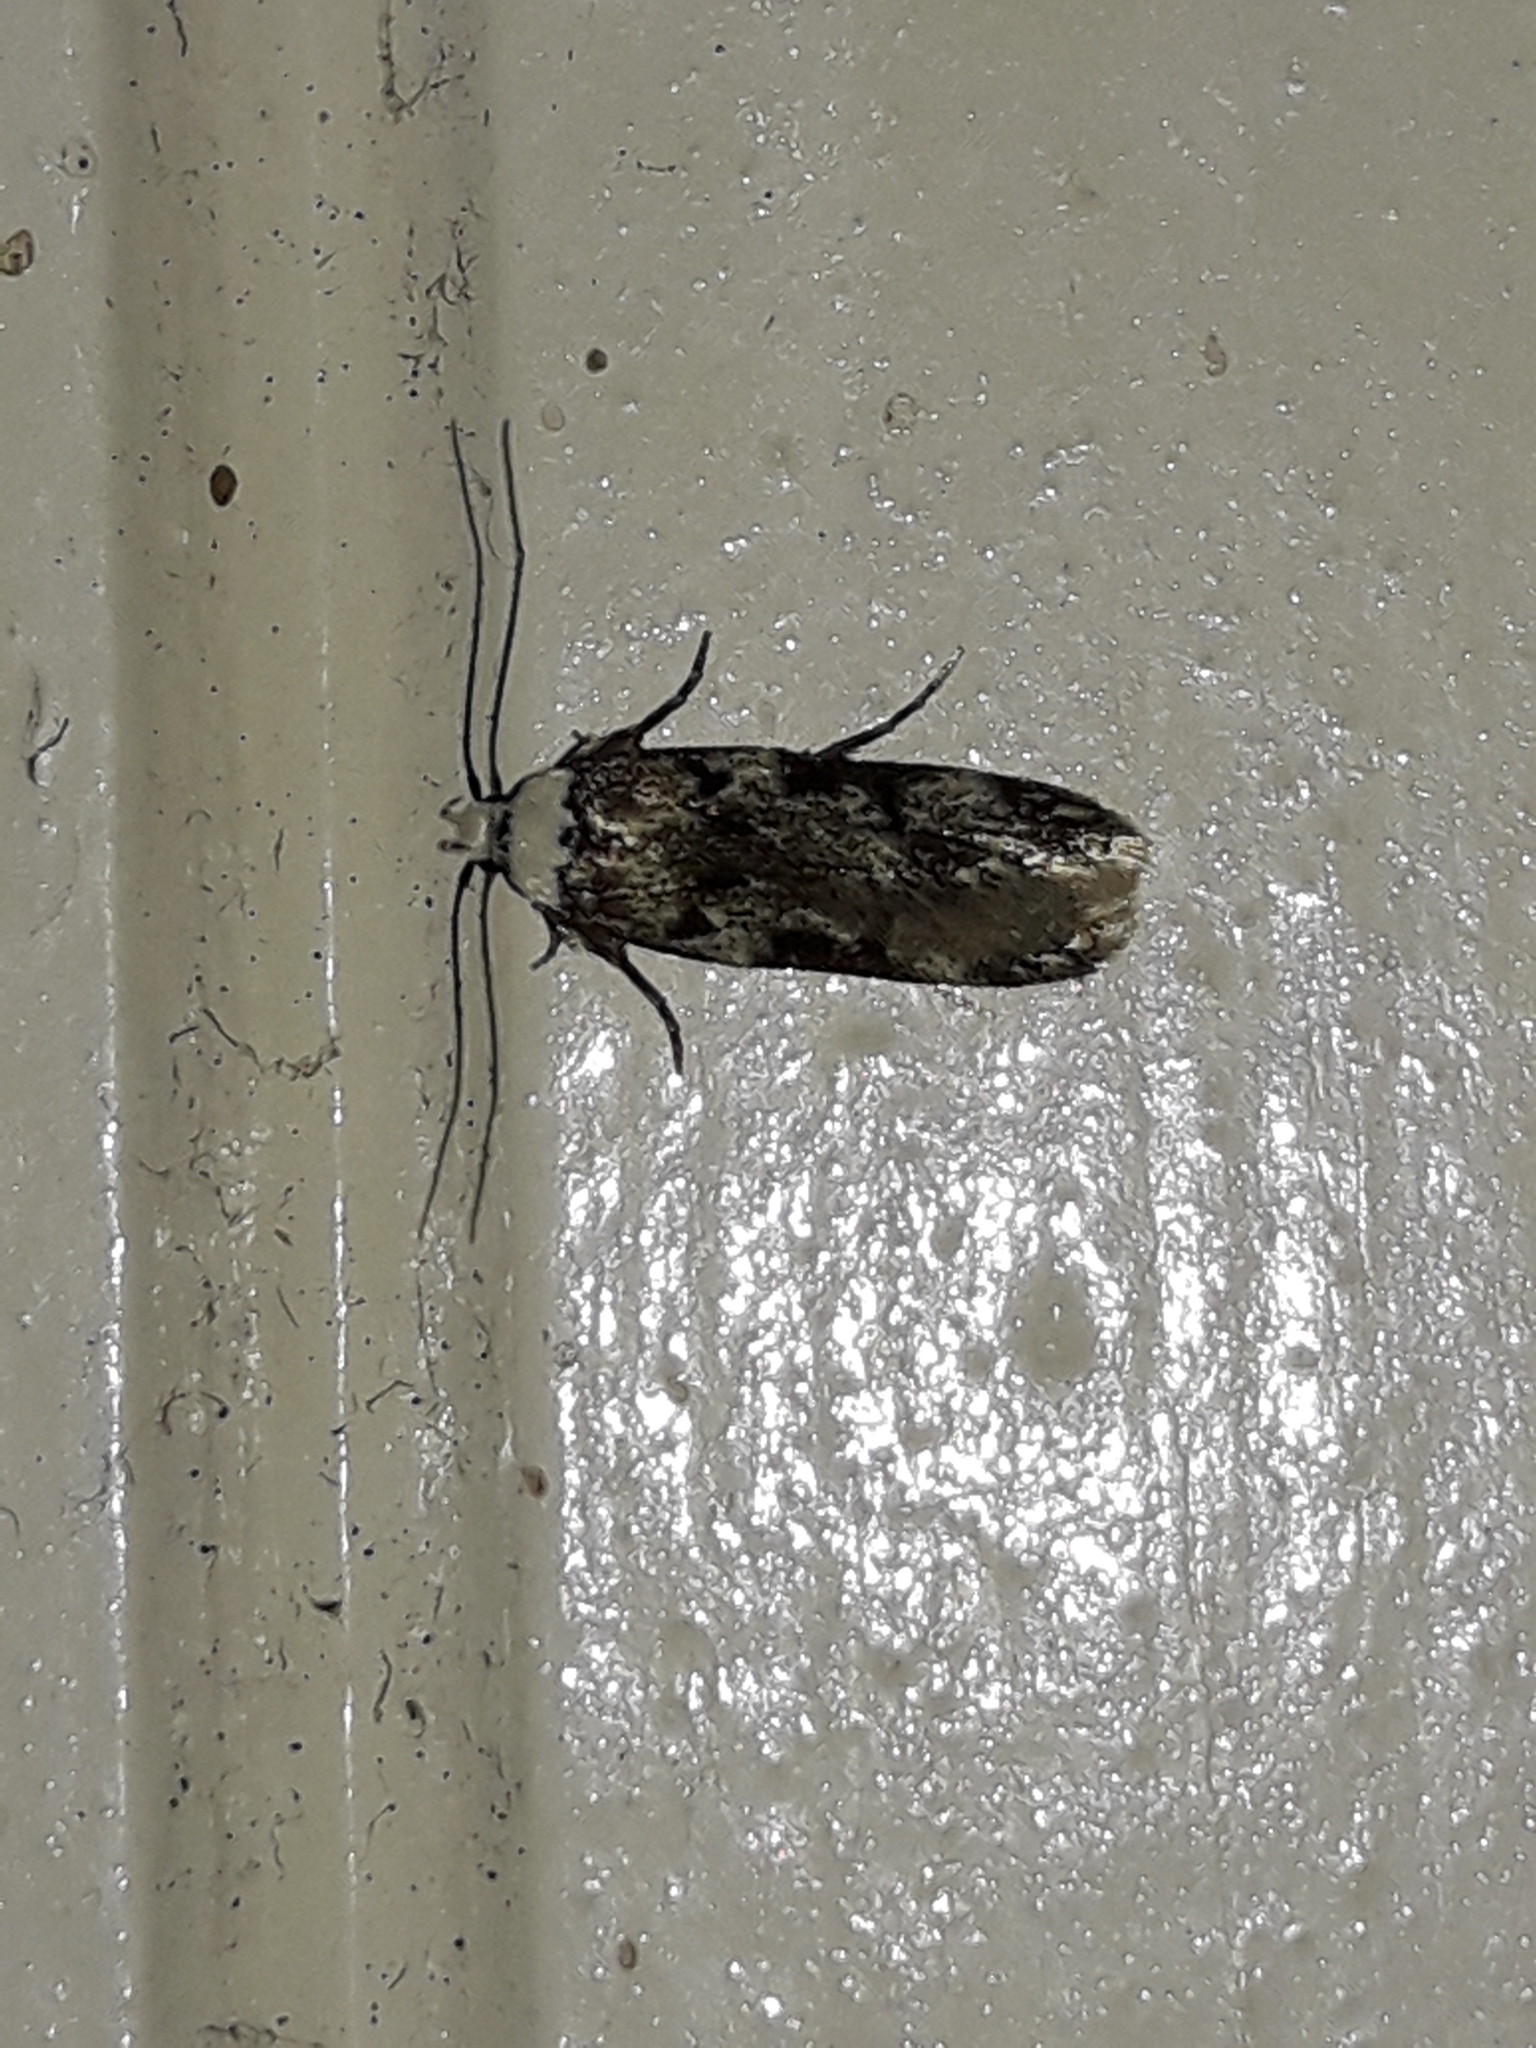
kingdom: Animalia
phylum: Arthropoda
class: Insecta
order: Lepidoptera
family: Oecophoridae
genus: Endrosis
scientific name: Endrosis sarcitrella
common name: White-shouldered house moth
